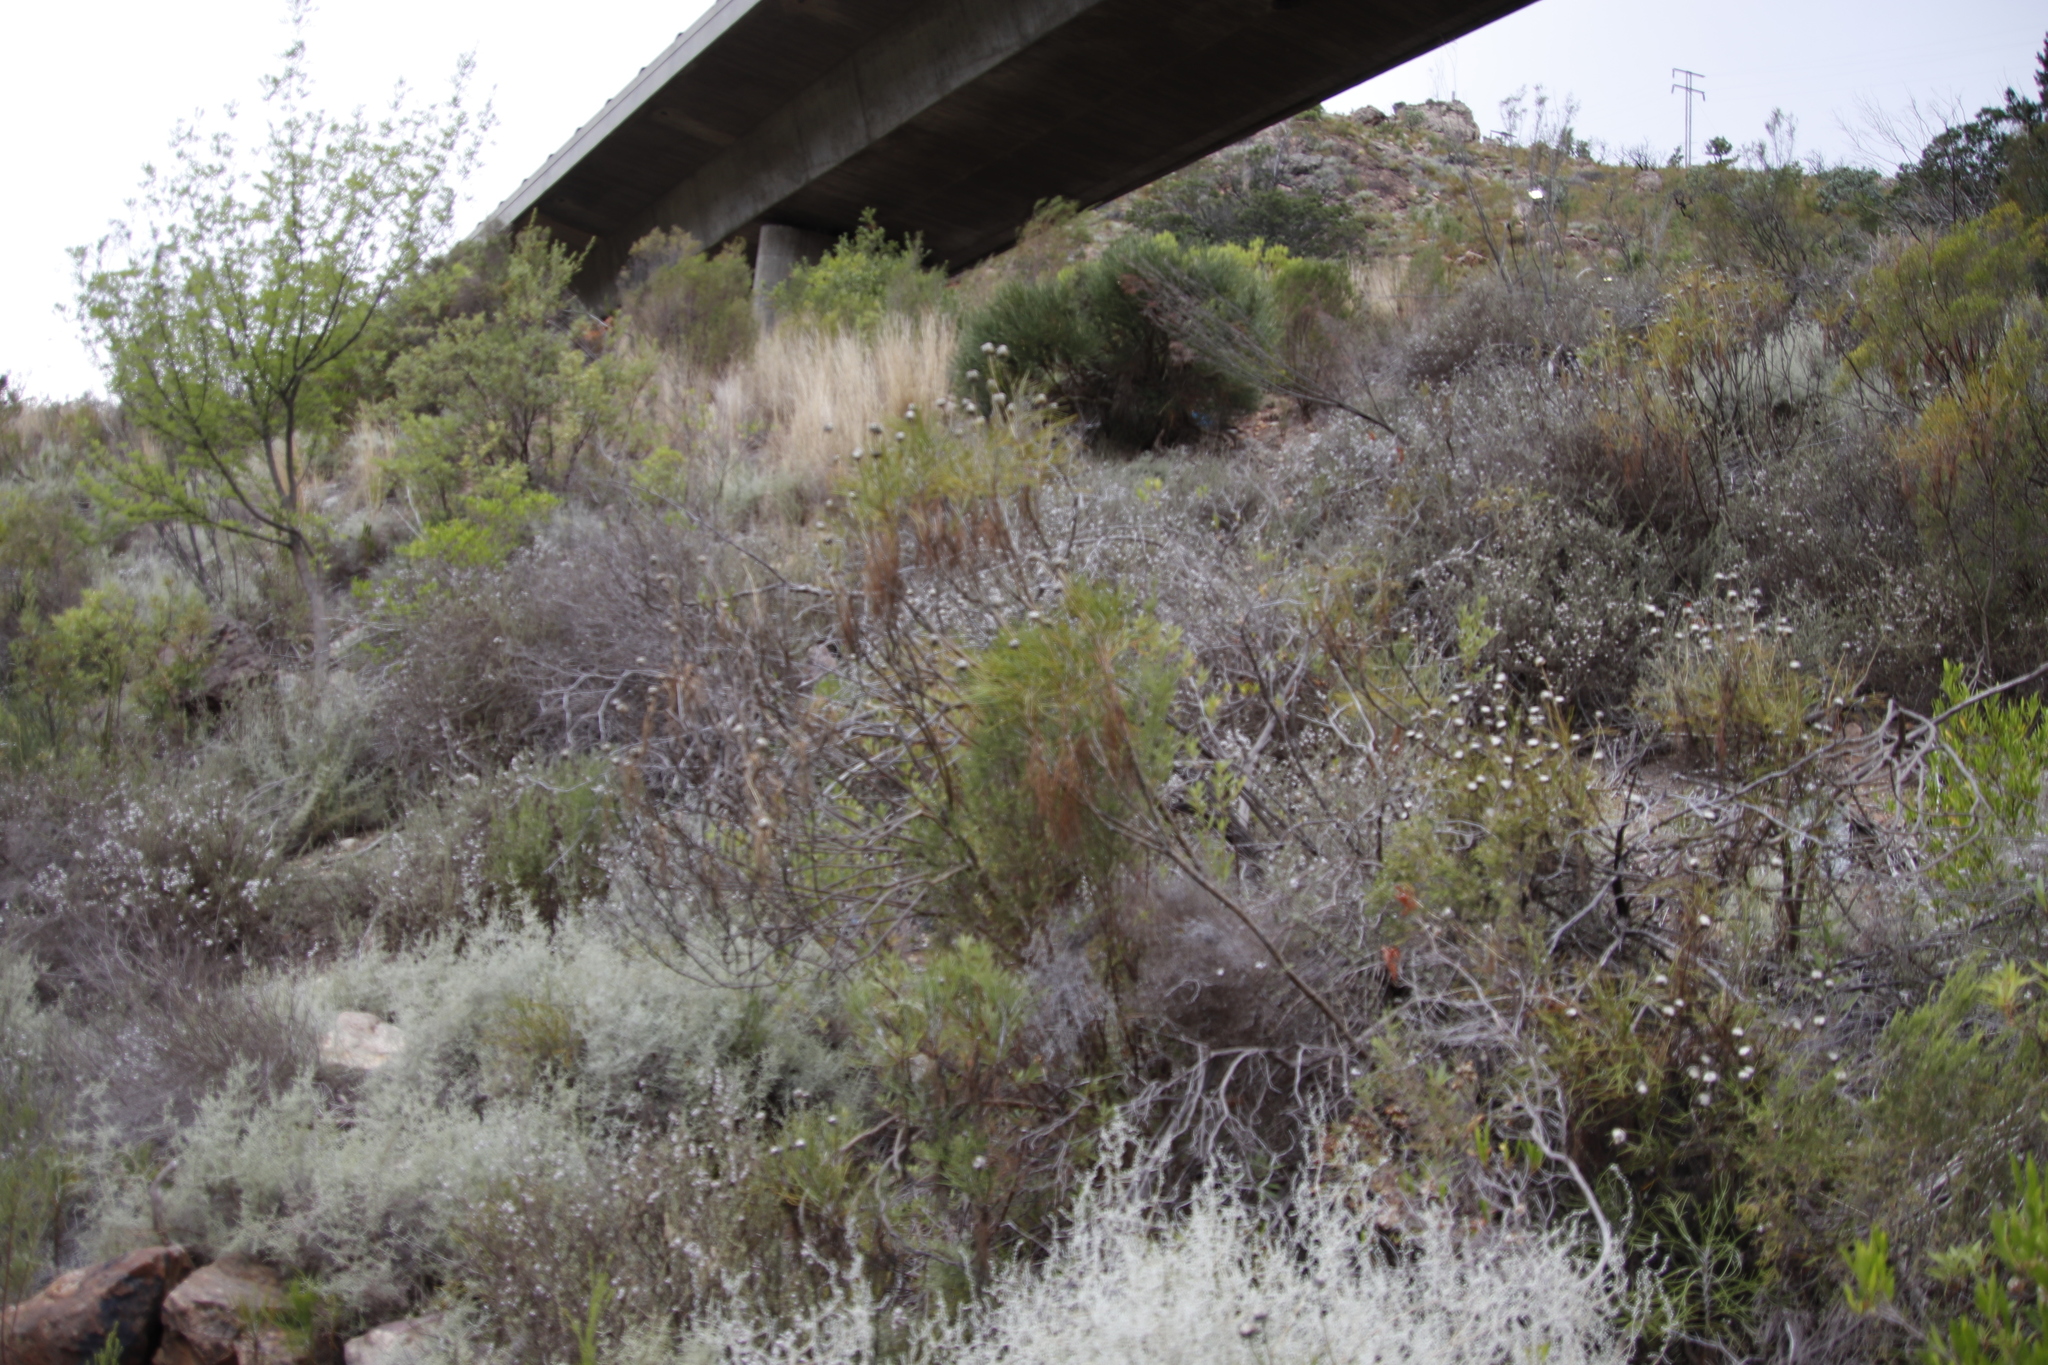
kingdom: Plantae
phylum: Tracheophyta
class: Magnoliopsida
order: Asterales
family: Asteraceae
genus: Euryops
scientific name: Euryops speciosissimus
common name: Clanwilliam daisy
